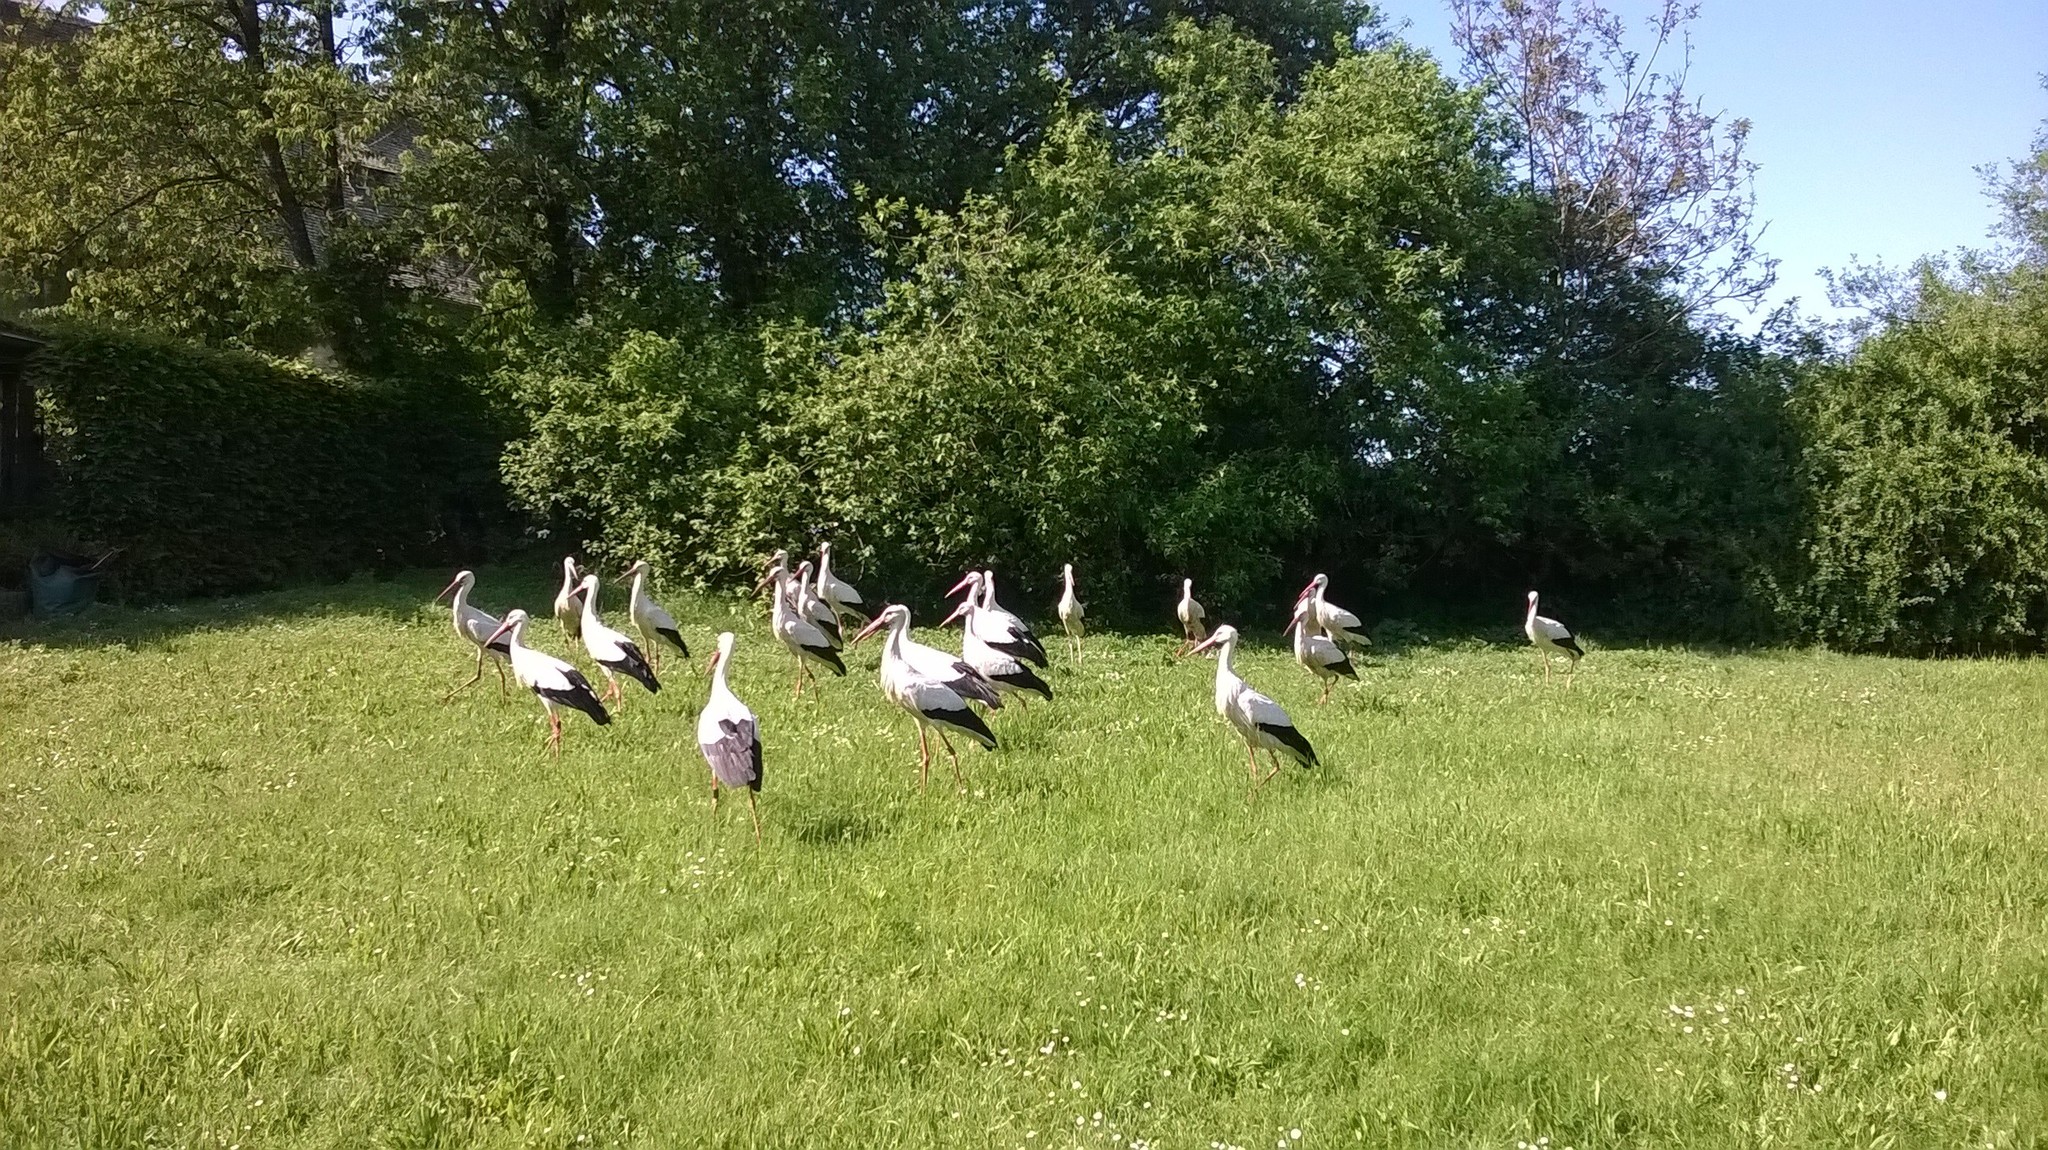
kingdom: Animalia
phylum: Chordata
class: Aves
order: Ciconiiformes
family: Ciconiidae
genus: Ciconia
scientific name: Ciconia ciconia
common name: White stork
